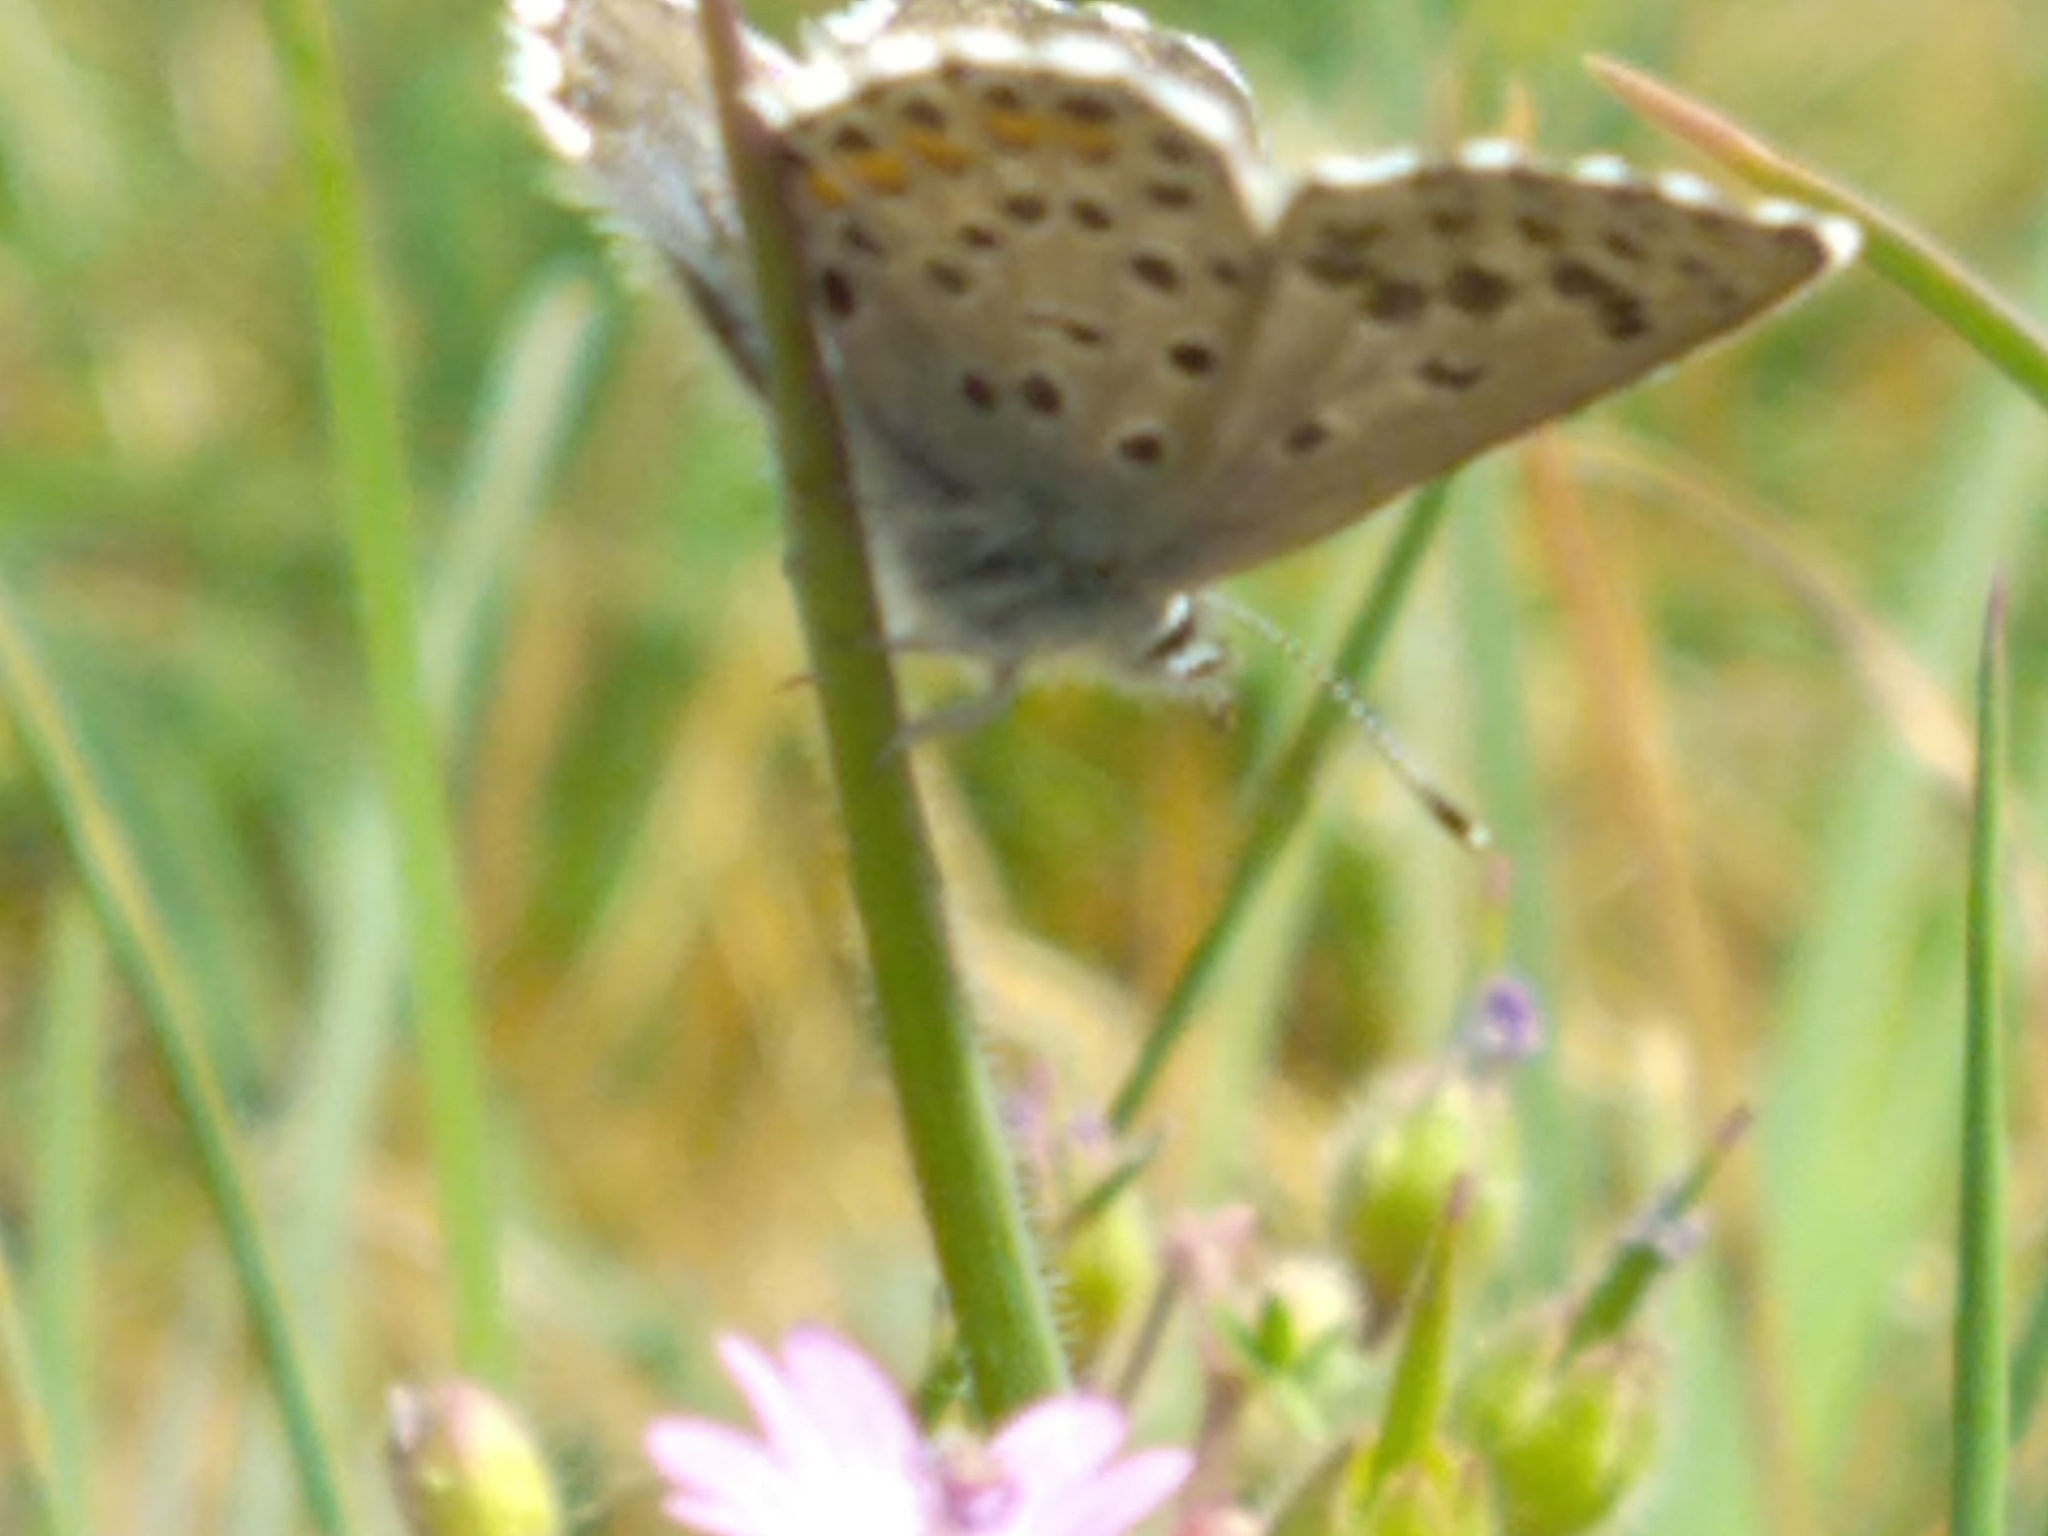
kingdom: Animalia
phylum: Arthropoda
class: Insecta
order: Lepidoptera
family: Lycaenidae
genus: Pseudophilotes
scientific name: Pseudophilotes baton
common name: Baton blue
